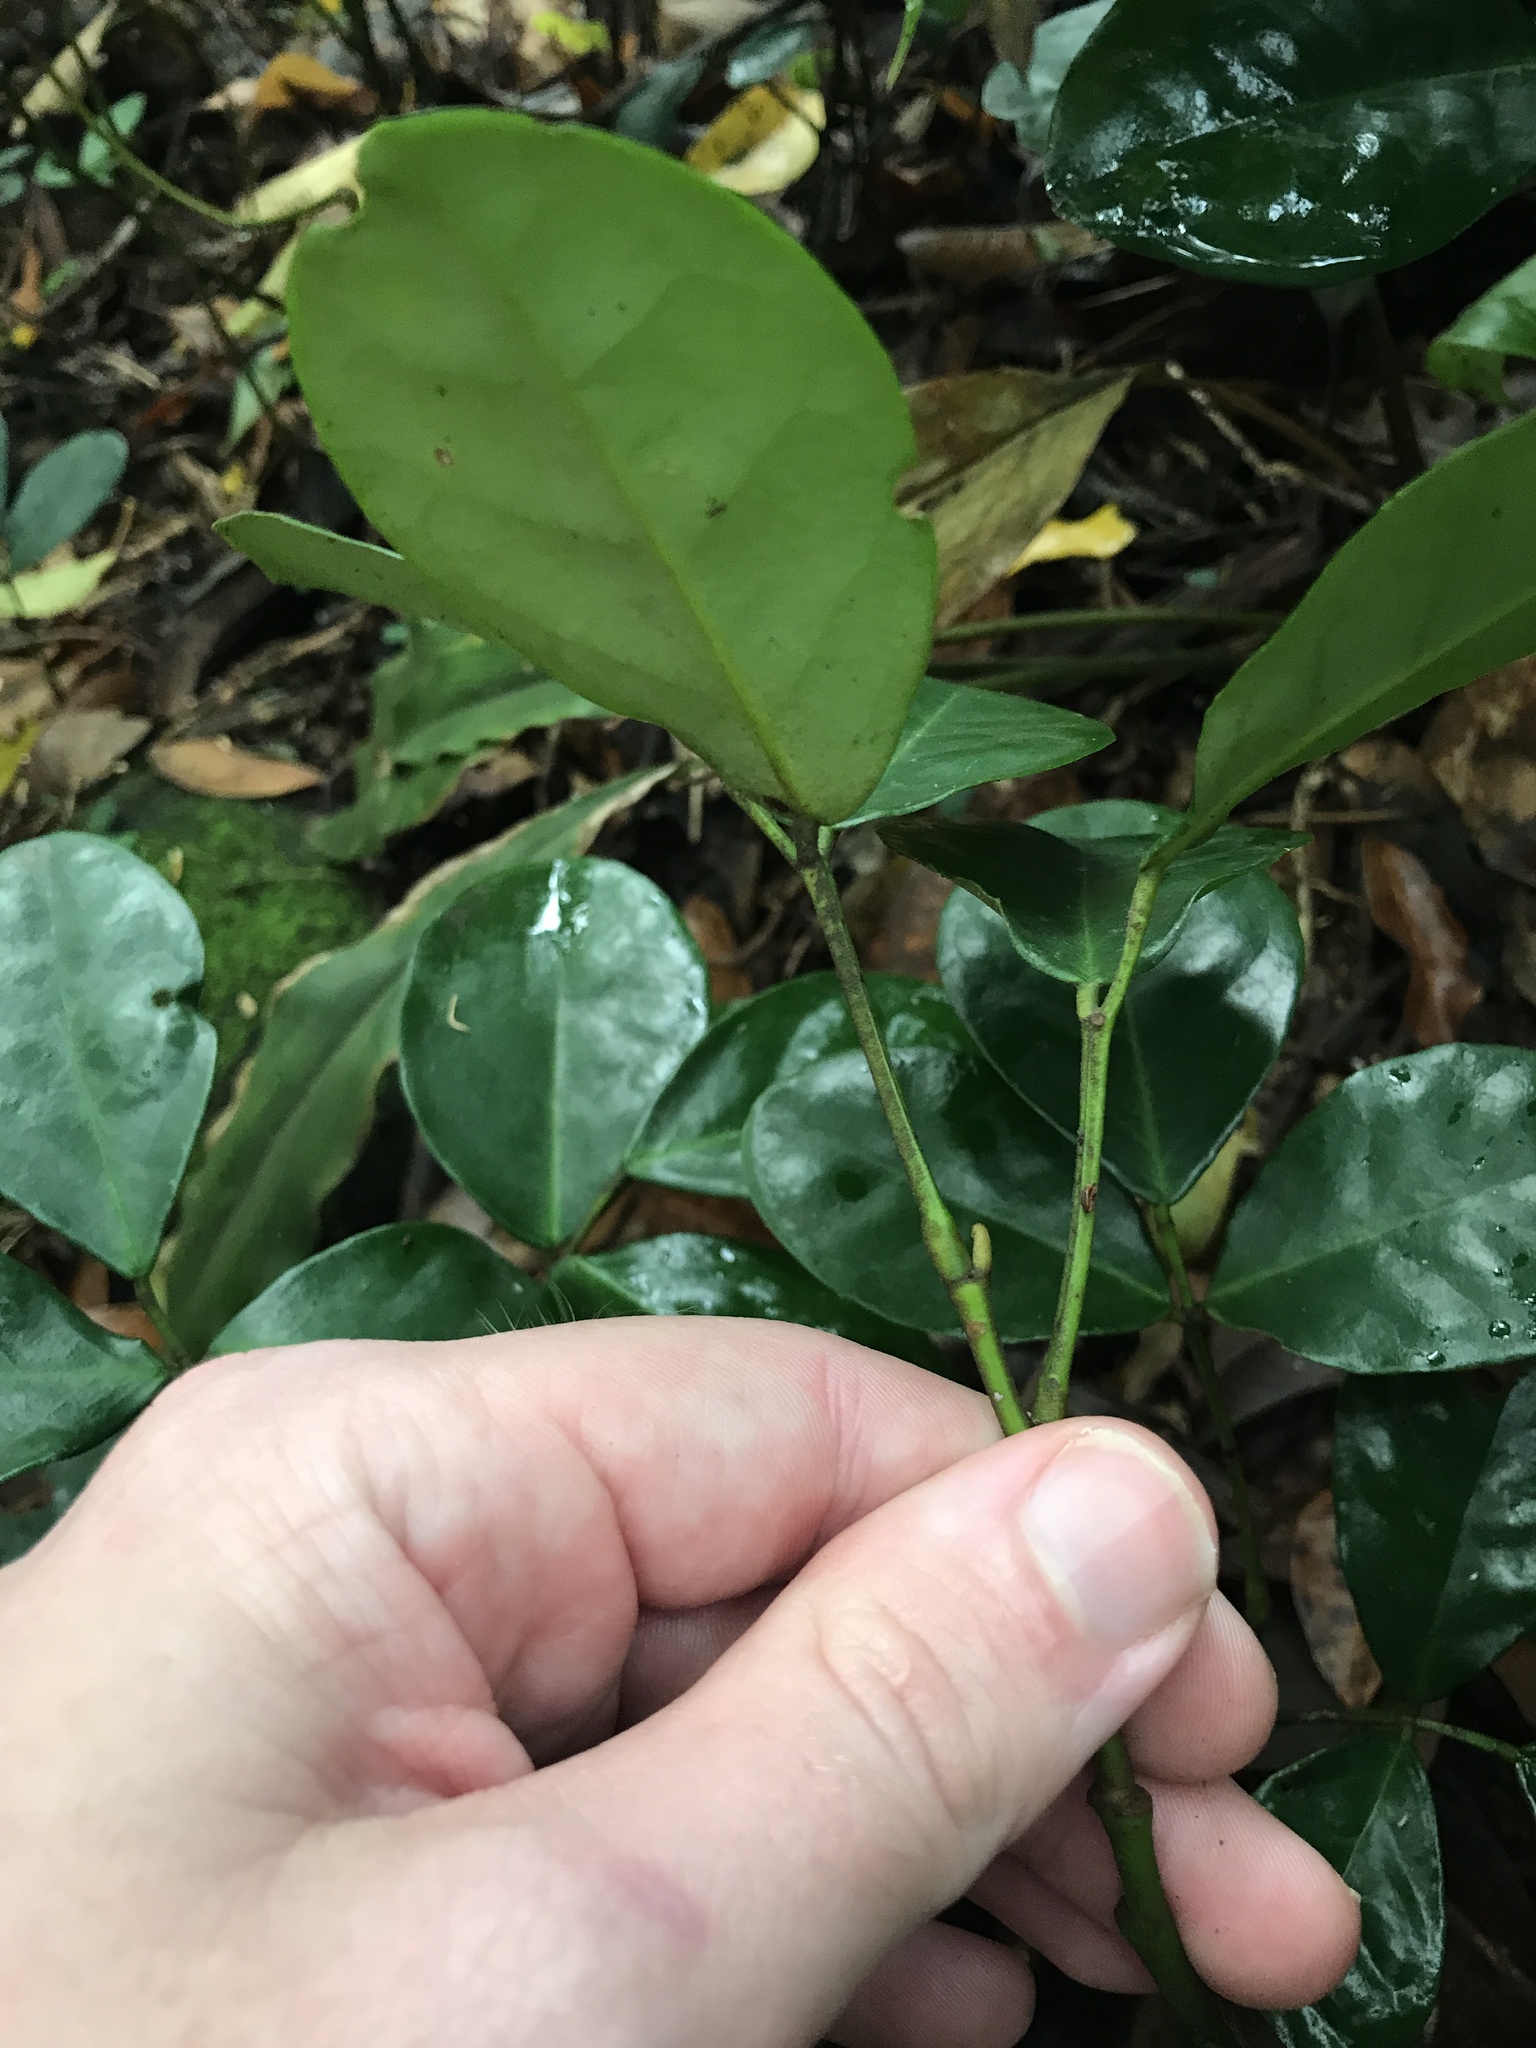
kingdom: Plantae
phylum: Tracheophyta
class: Magnoliopsida
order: Fabales
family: Fabaceae
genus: Euchresta
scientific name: Euchresta japonica
